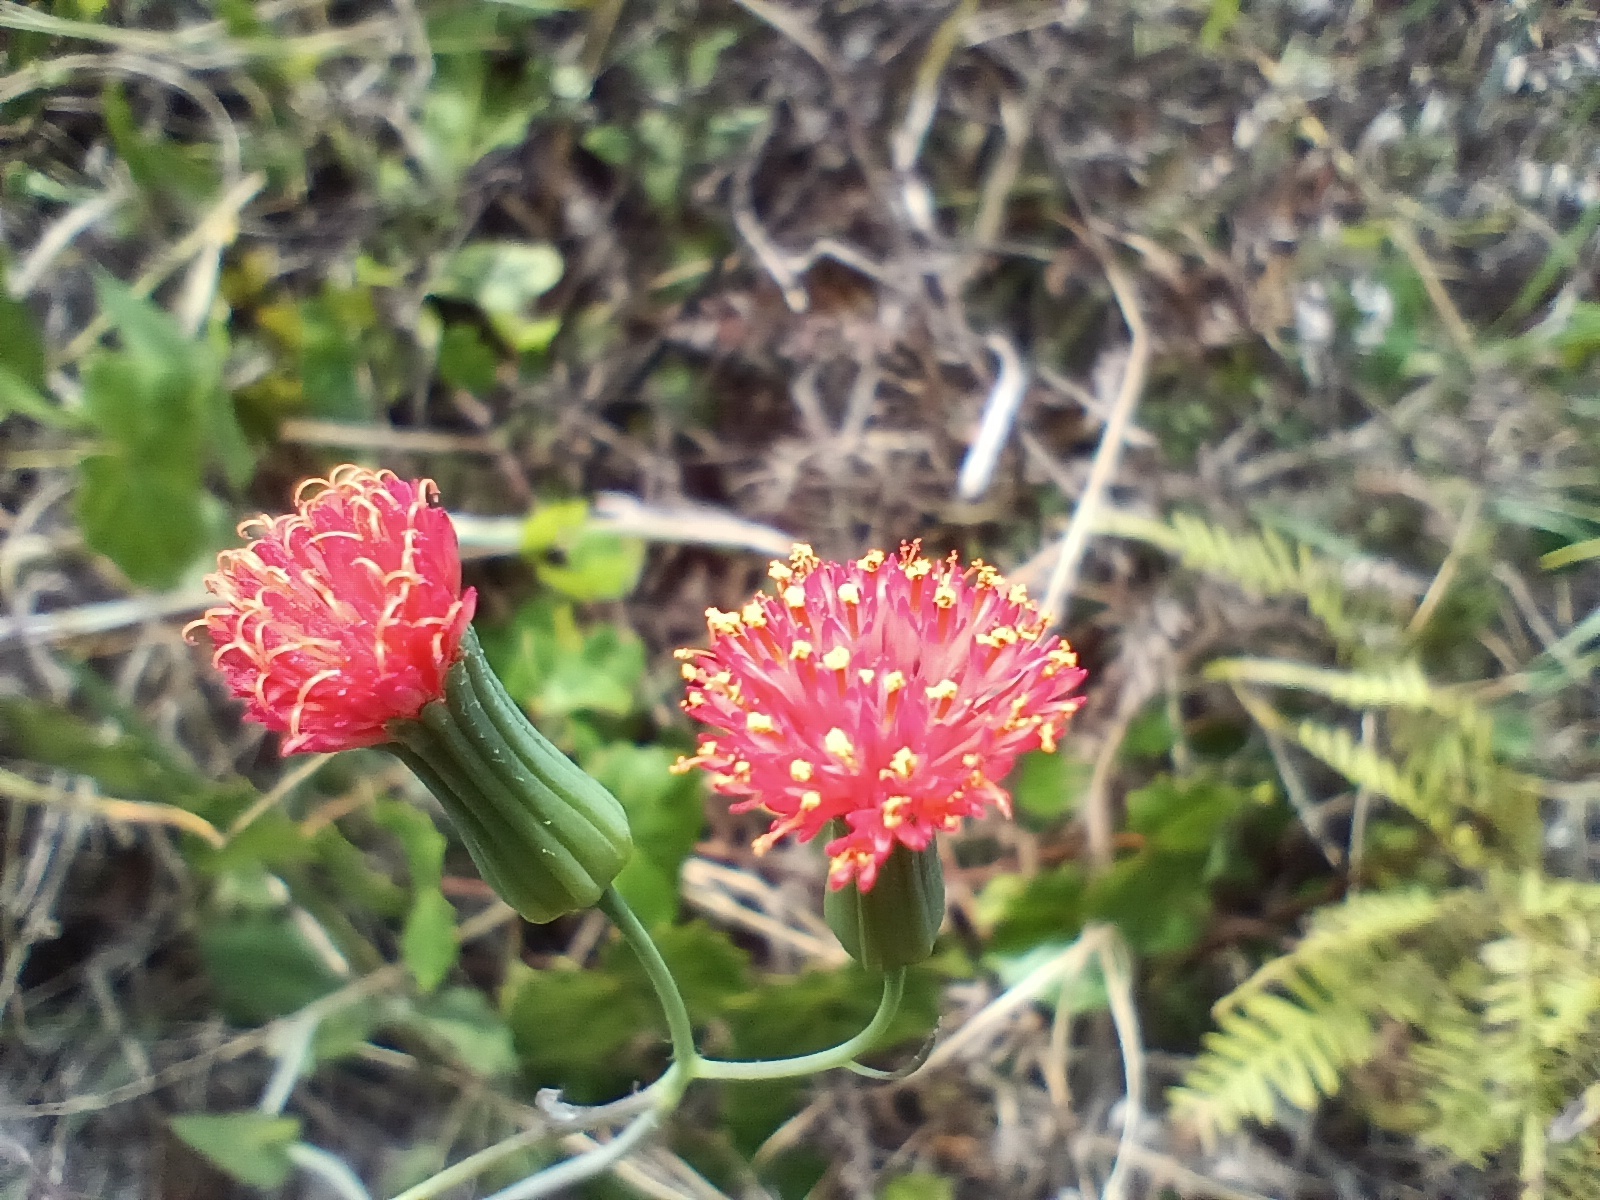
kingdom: Plantae
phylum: Tracheophyta
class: Magnoliopsida
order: Asterales
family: Asteraceae
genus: Emilia
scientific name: Emilia fosbergii
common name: Florida tasselflower
